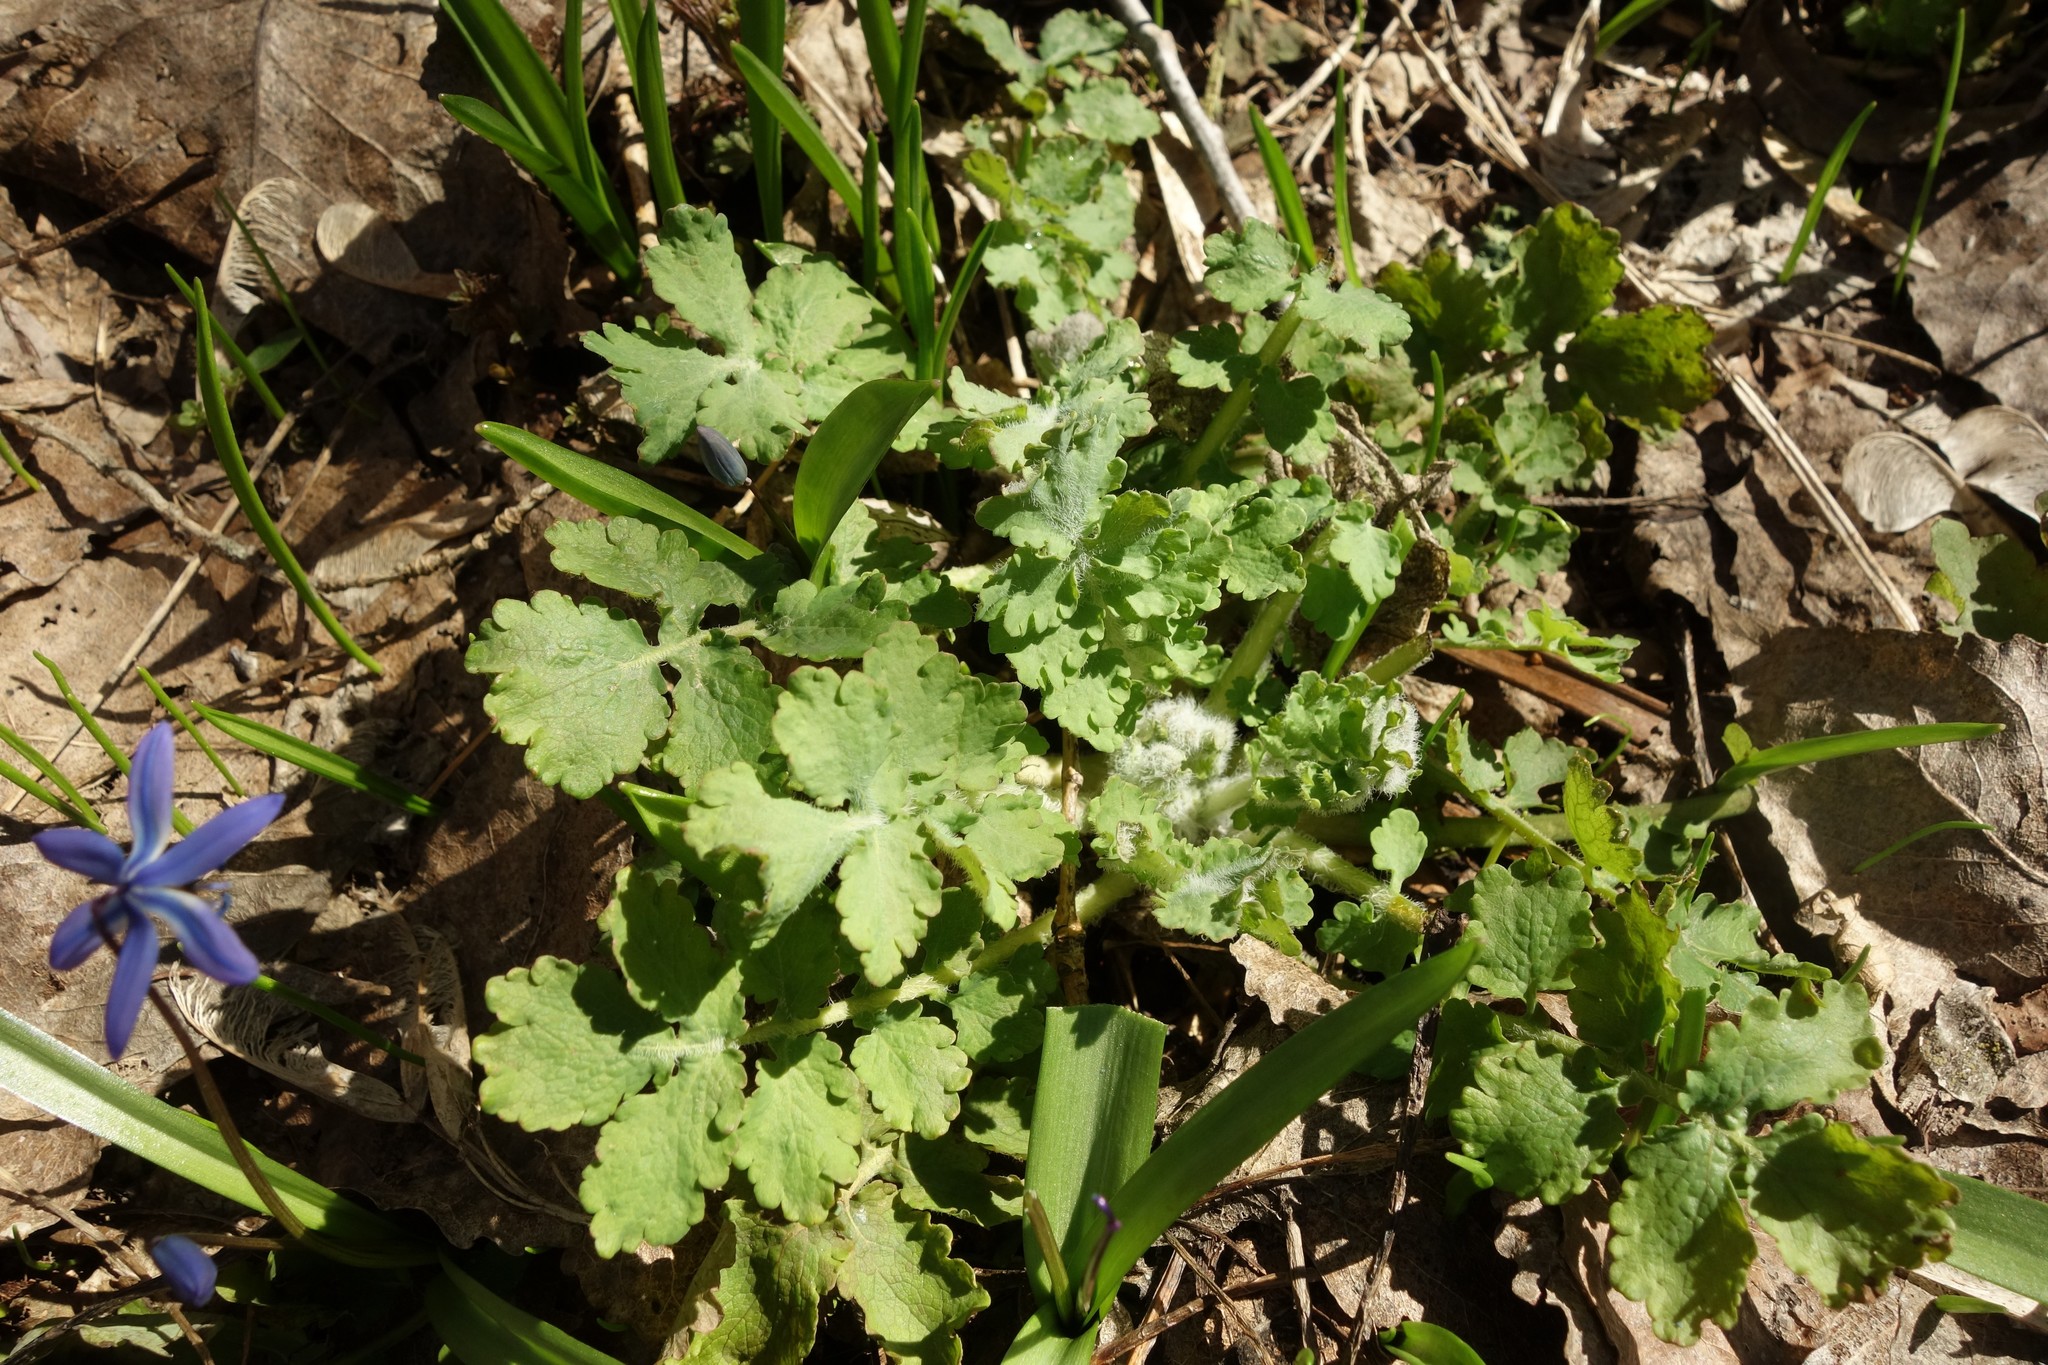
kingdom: Plantae
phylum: Tracheophyta
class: Magnoliopsida
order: Ranunculales
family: Papaveraceae
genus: Chelidonium
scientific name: Chelidonium majus
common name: Greater celandine
